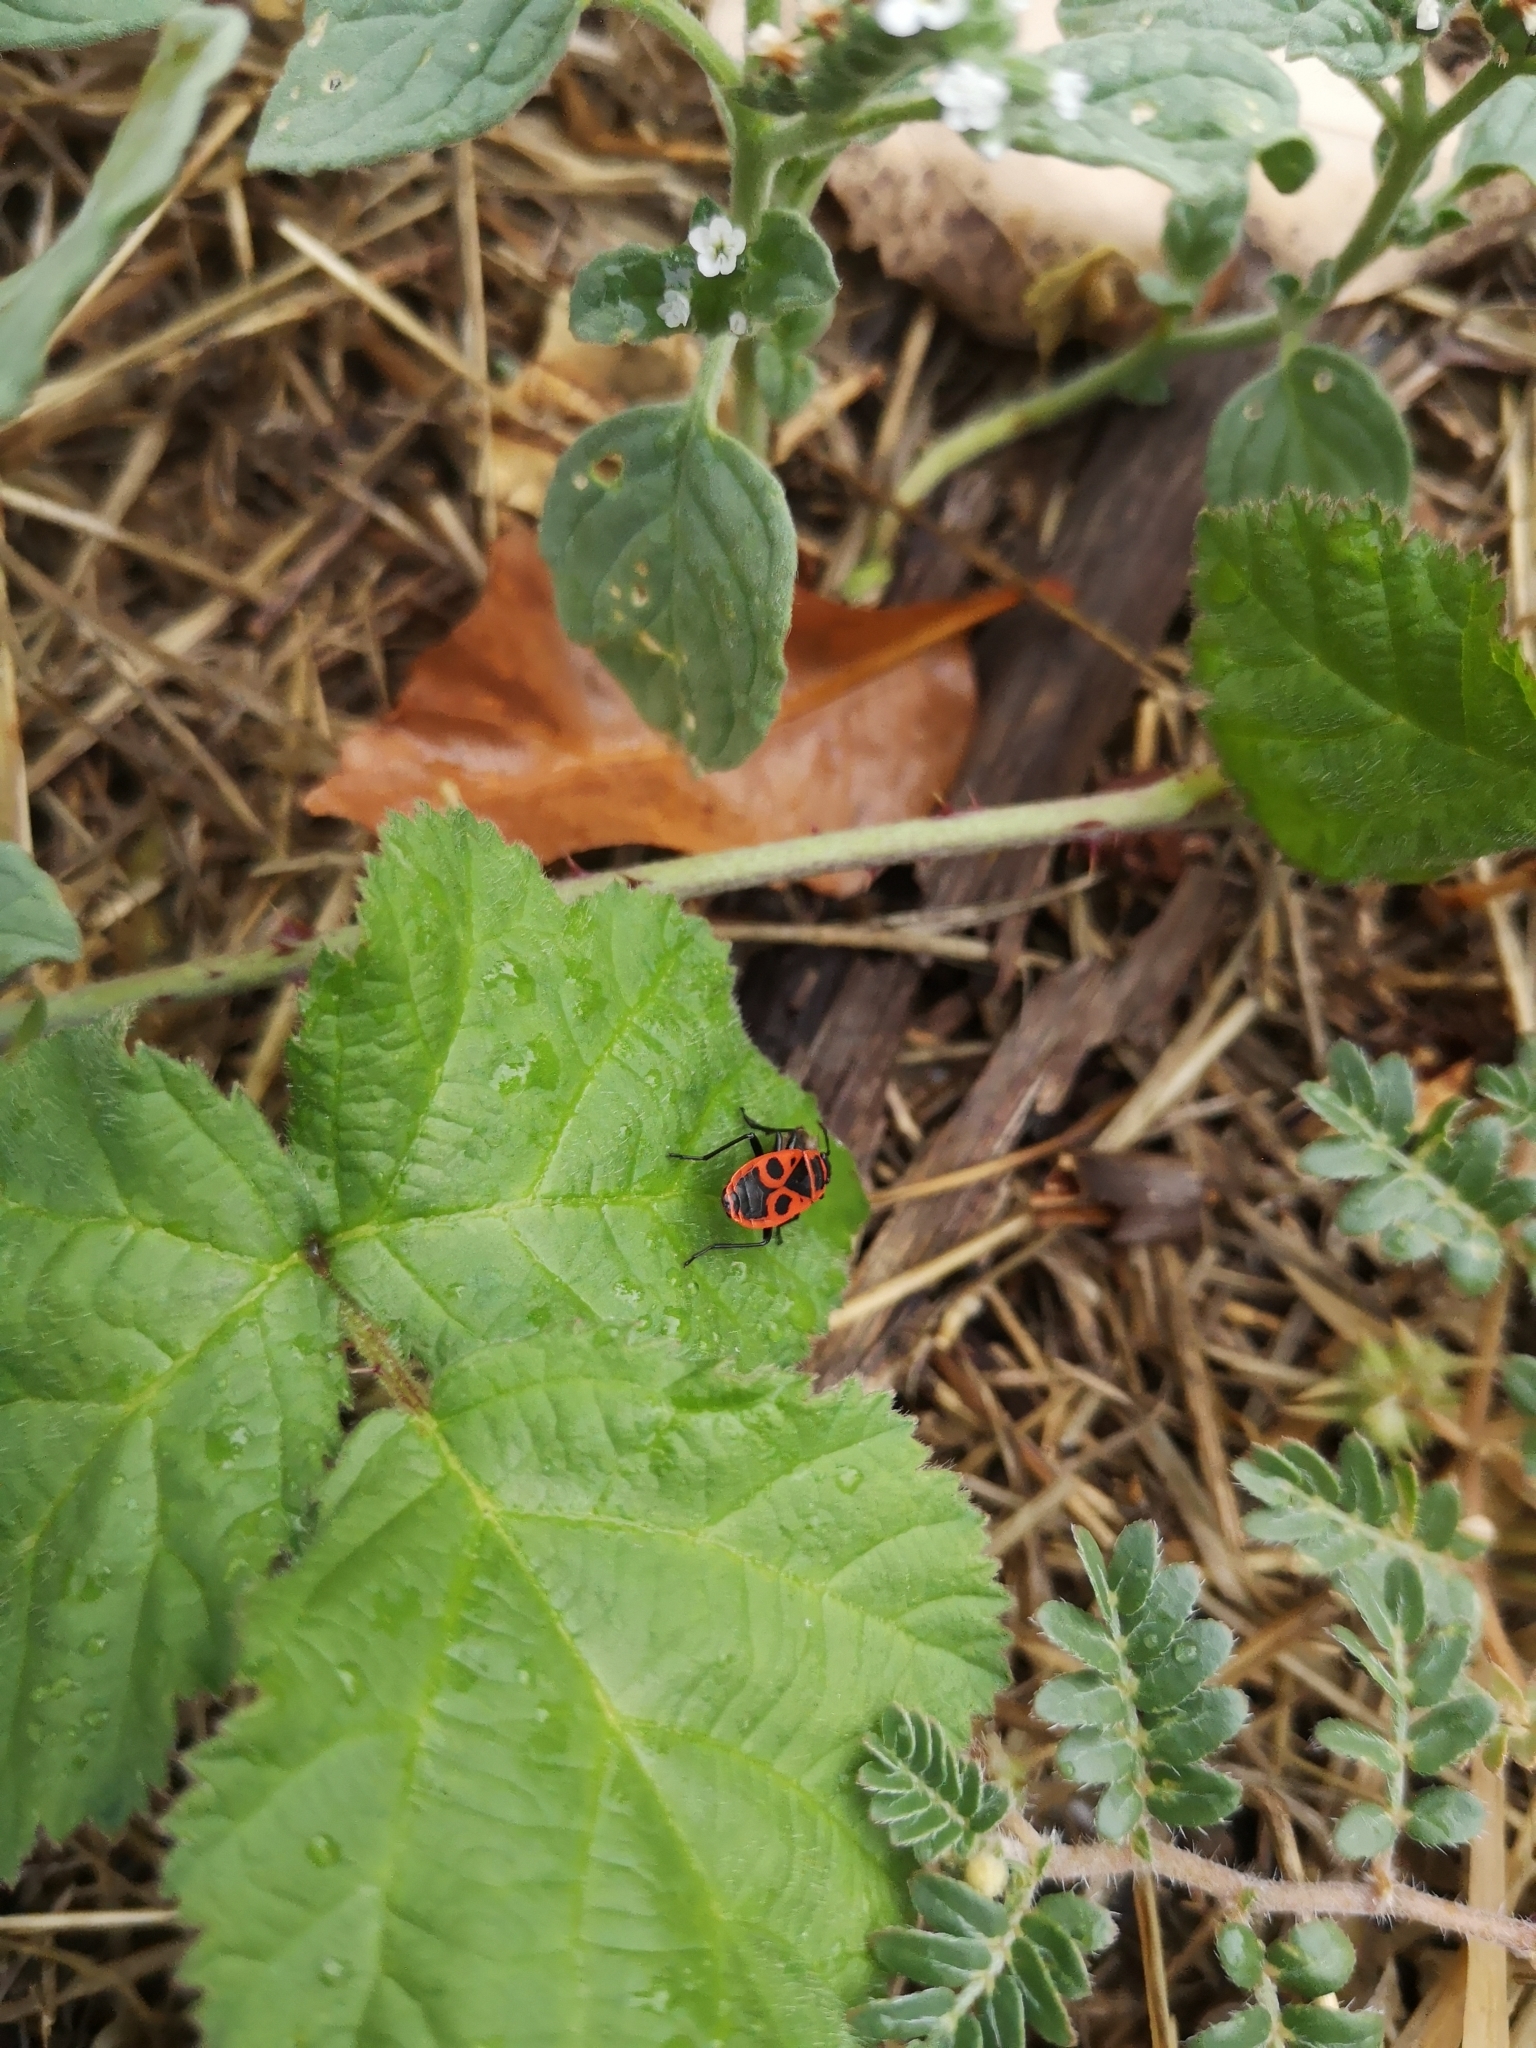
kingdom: Animalia
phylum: Arthropoda
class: Insecta
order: Hemiptera
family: Pyrrhocoridae
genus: Pyrrhocoris
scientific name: Pyrrhocoris apterus
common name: Firebug
